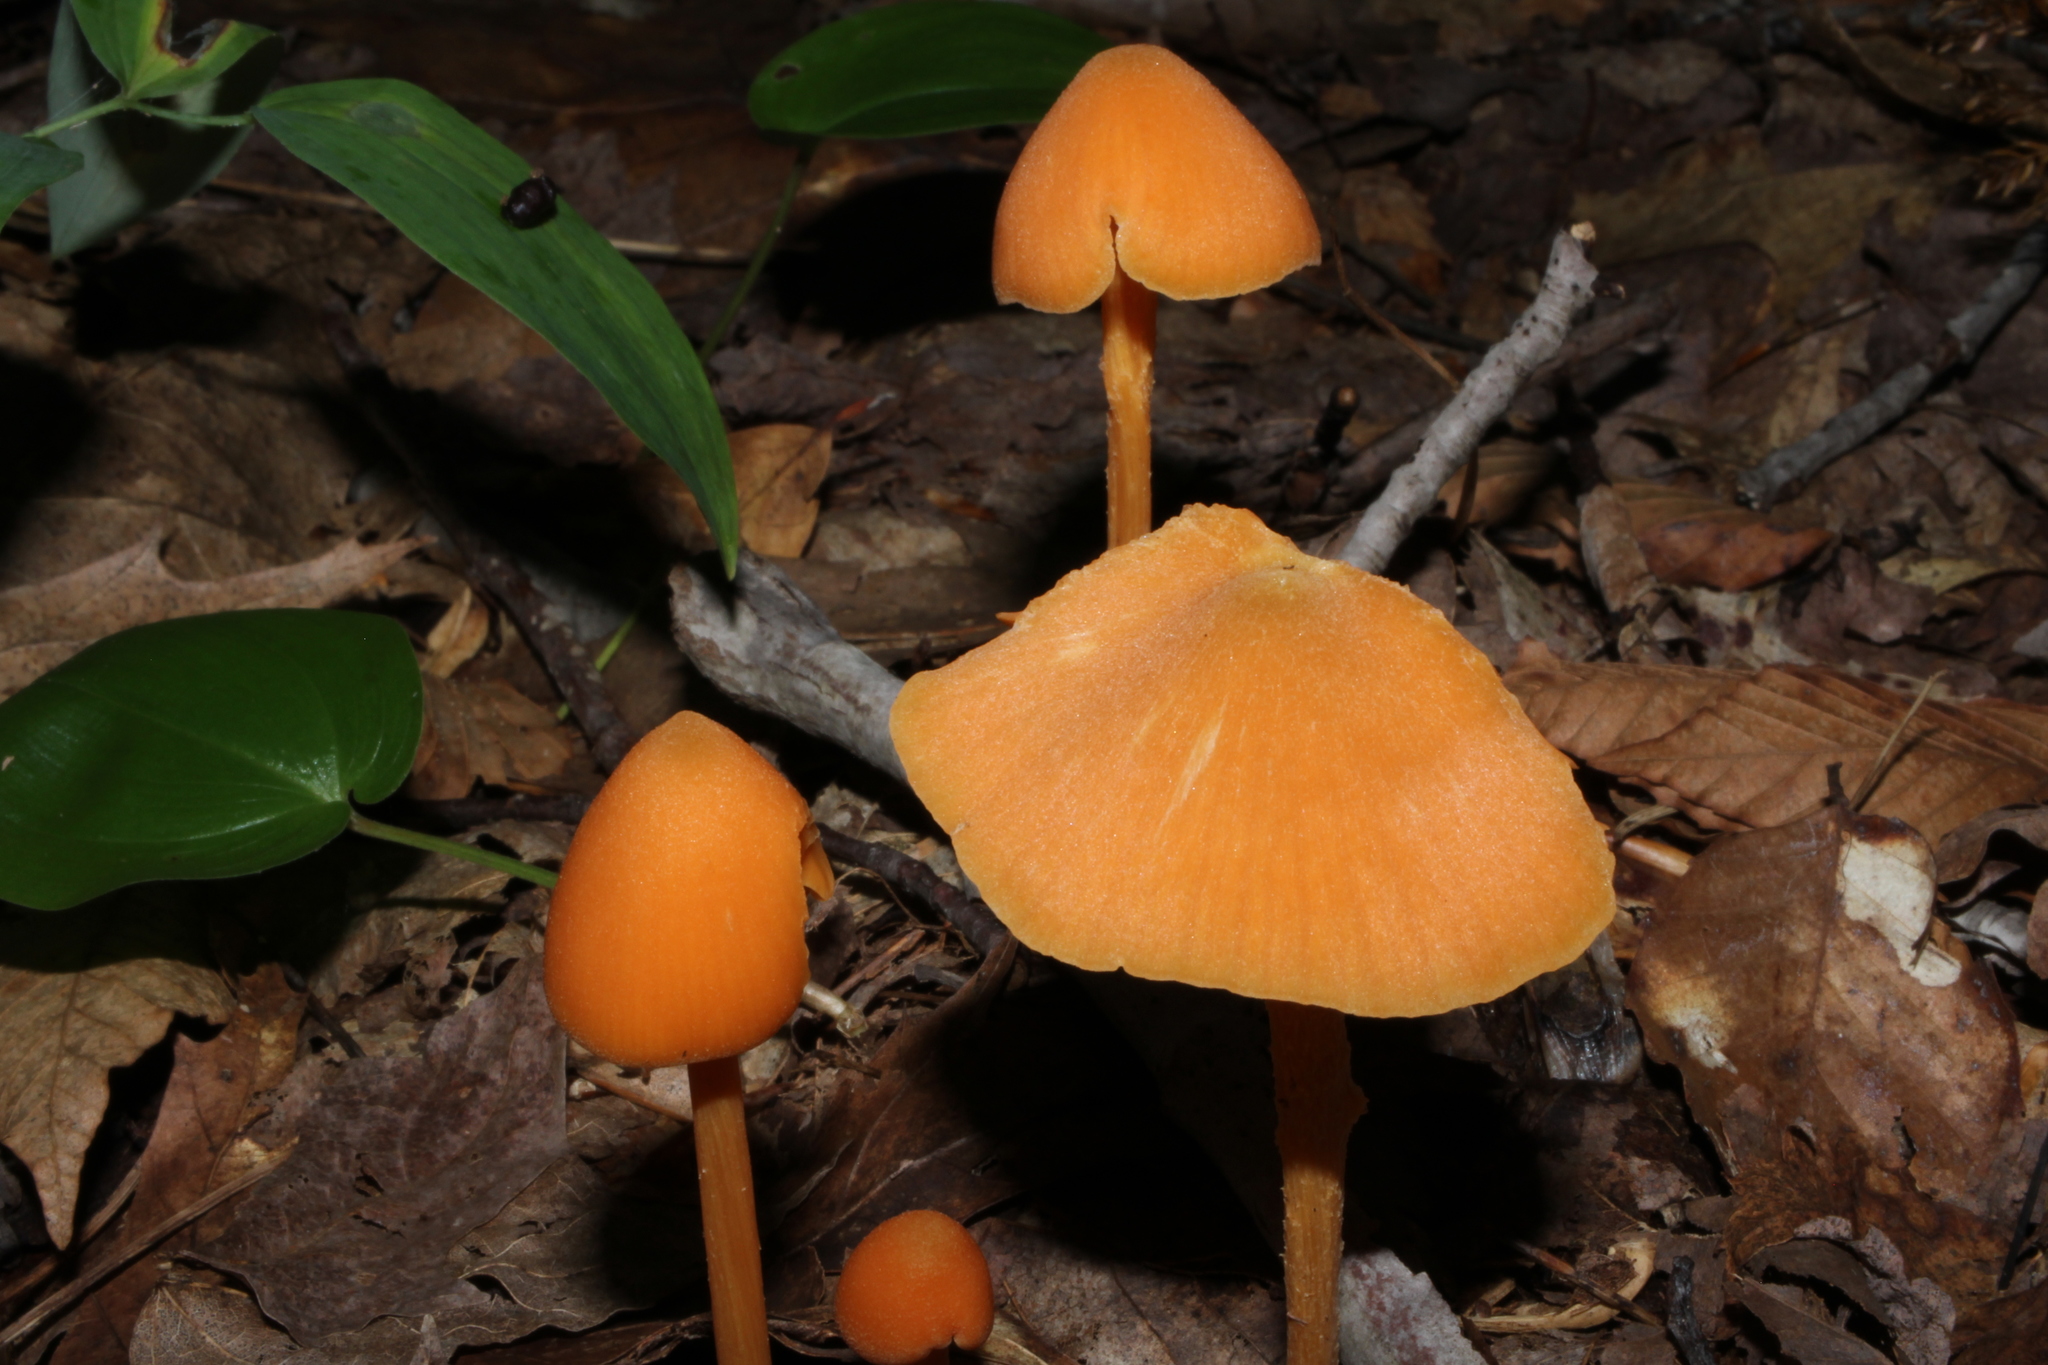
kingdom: Fungi
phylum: Basidiomycota
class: Agaricomycetes
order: Agaricales
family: Entolomataceae
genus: Entoloma
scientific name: Entoloma quadratum
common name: Salmon pinkgill
